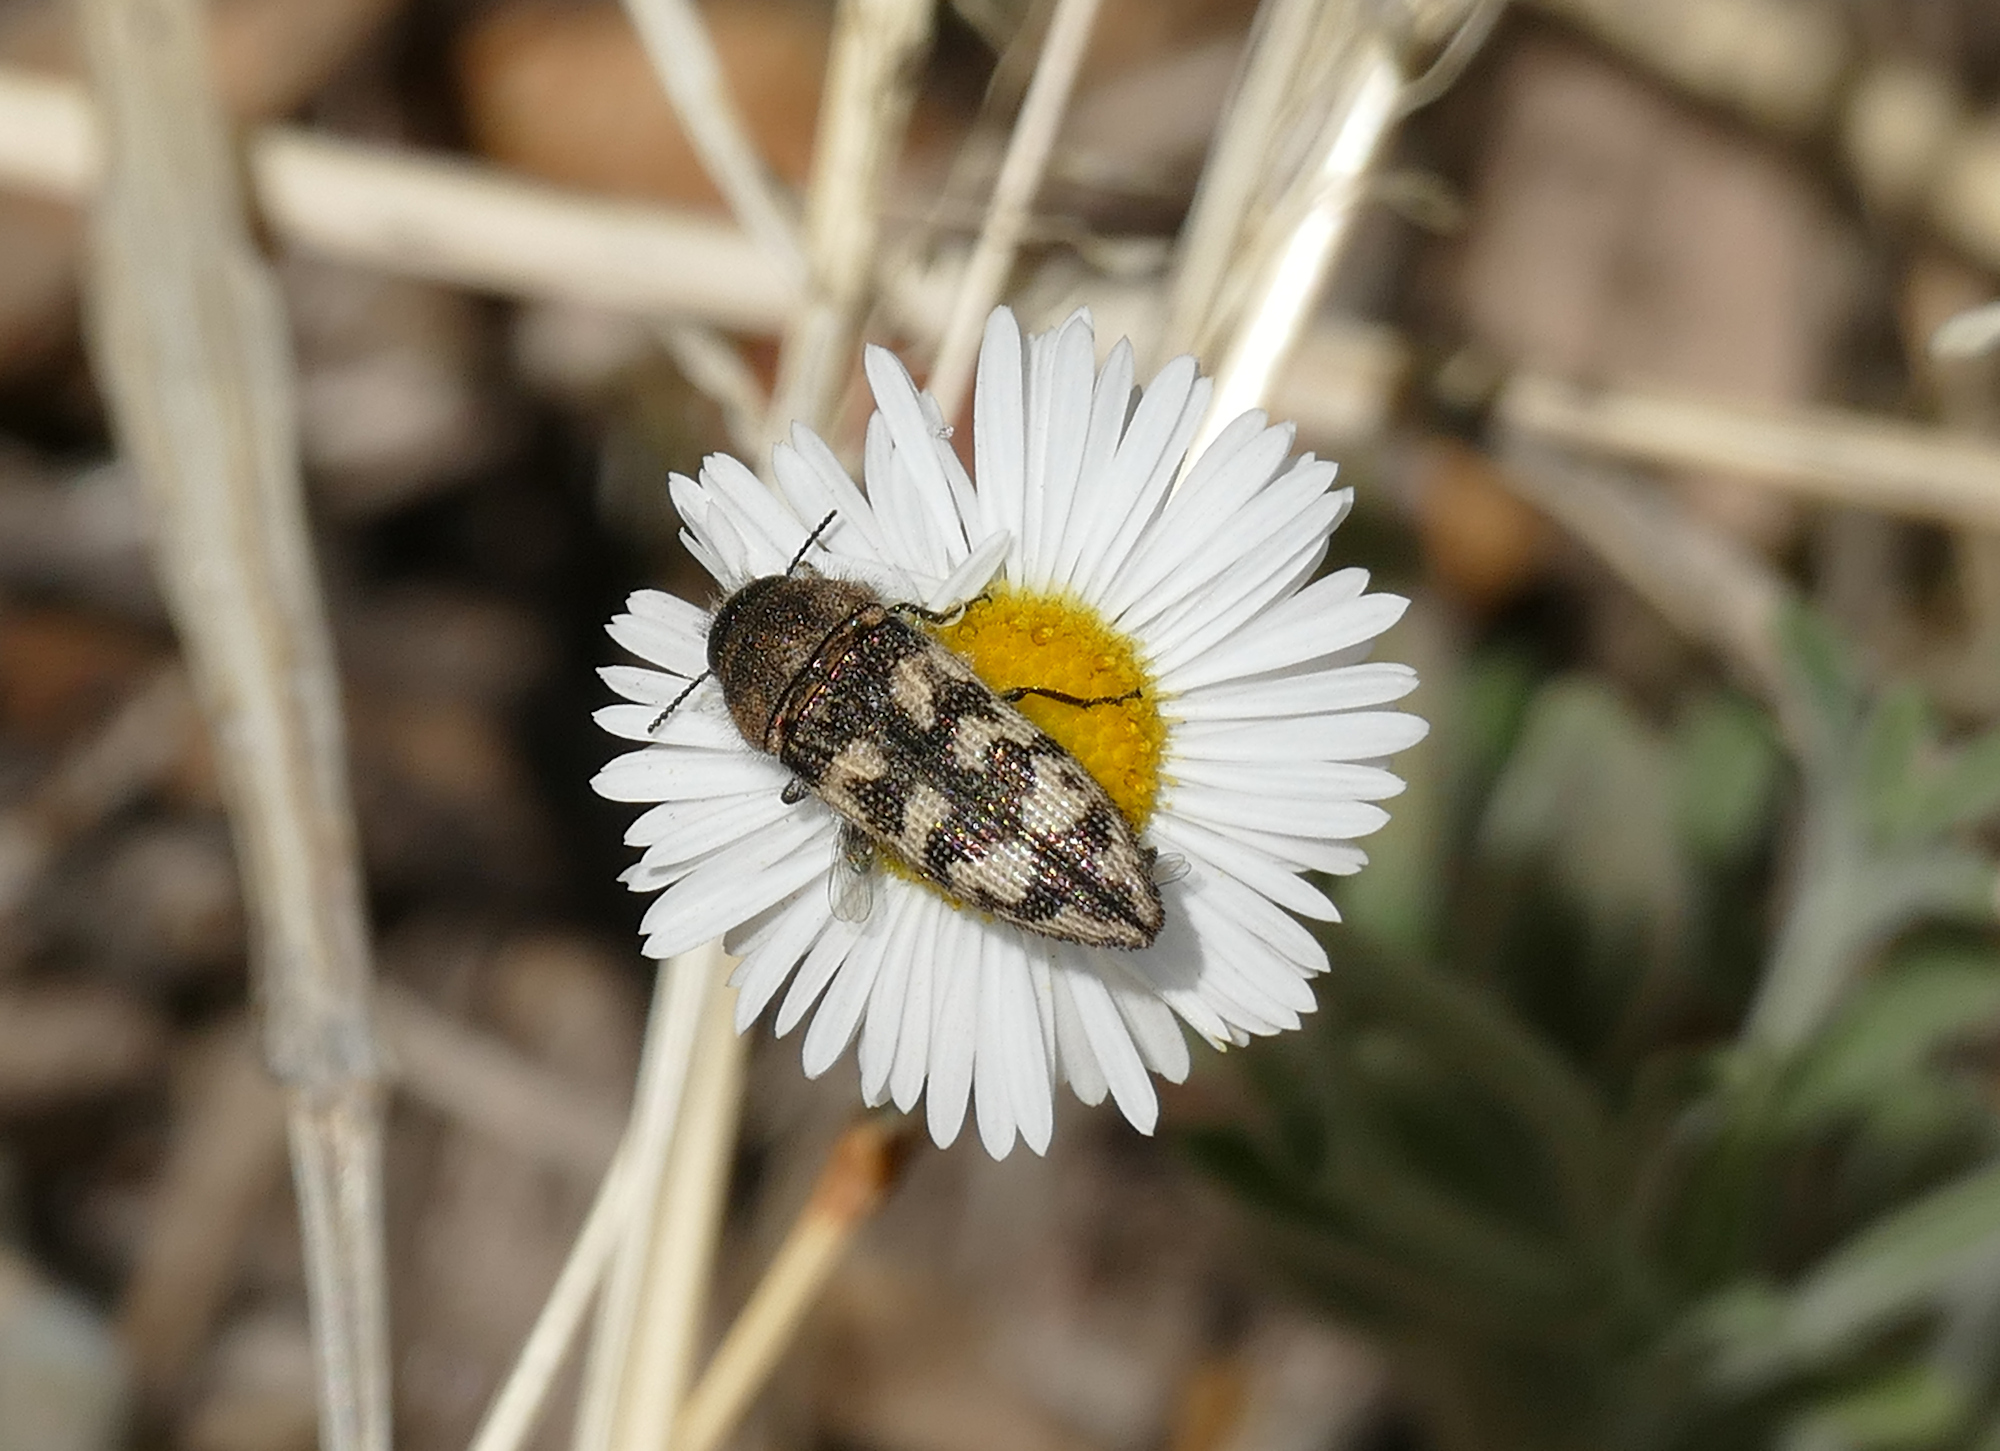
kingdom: Animalia
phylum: Arthropoda
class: Insecta
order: Coleoptera
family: Buprestidae
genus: Acmaeodera
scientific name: Acmaeodera bowditchi
